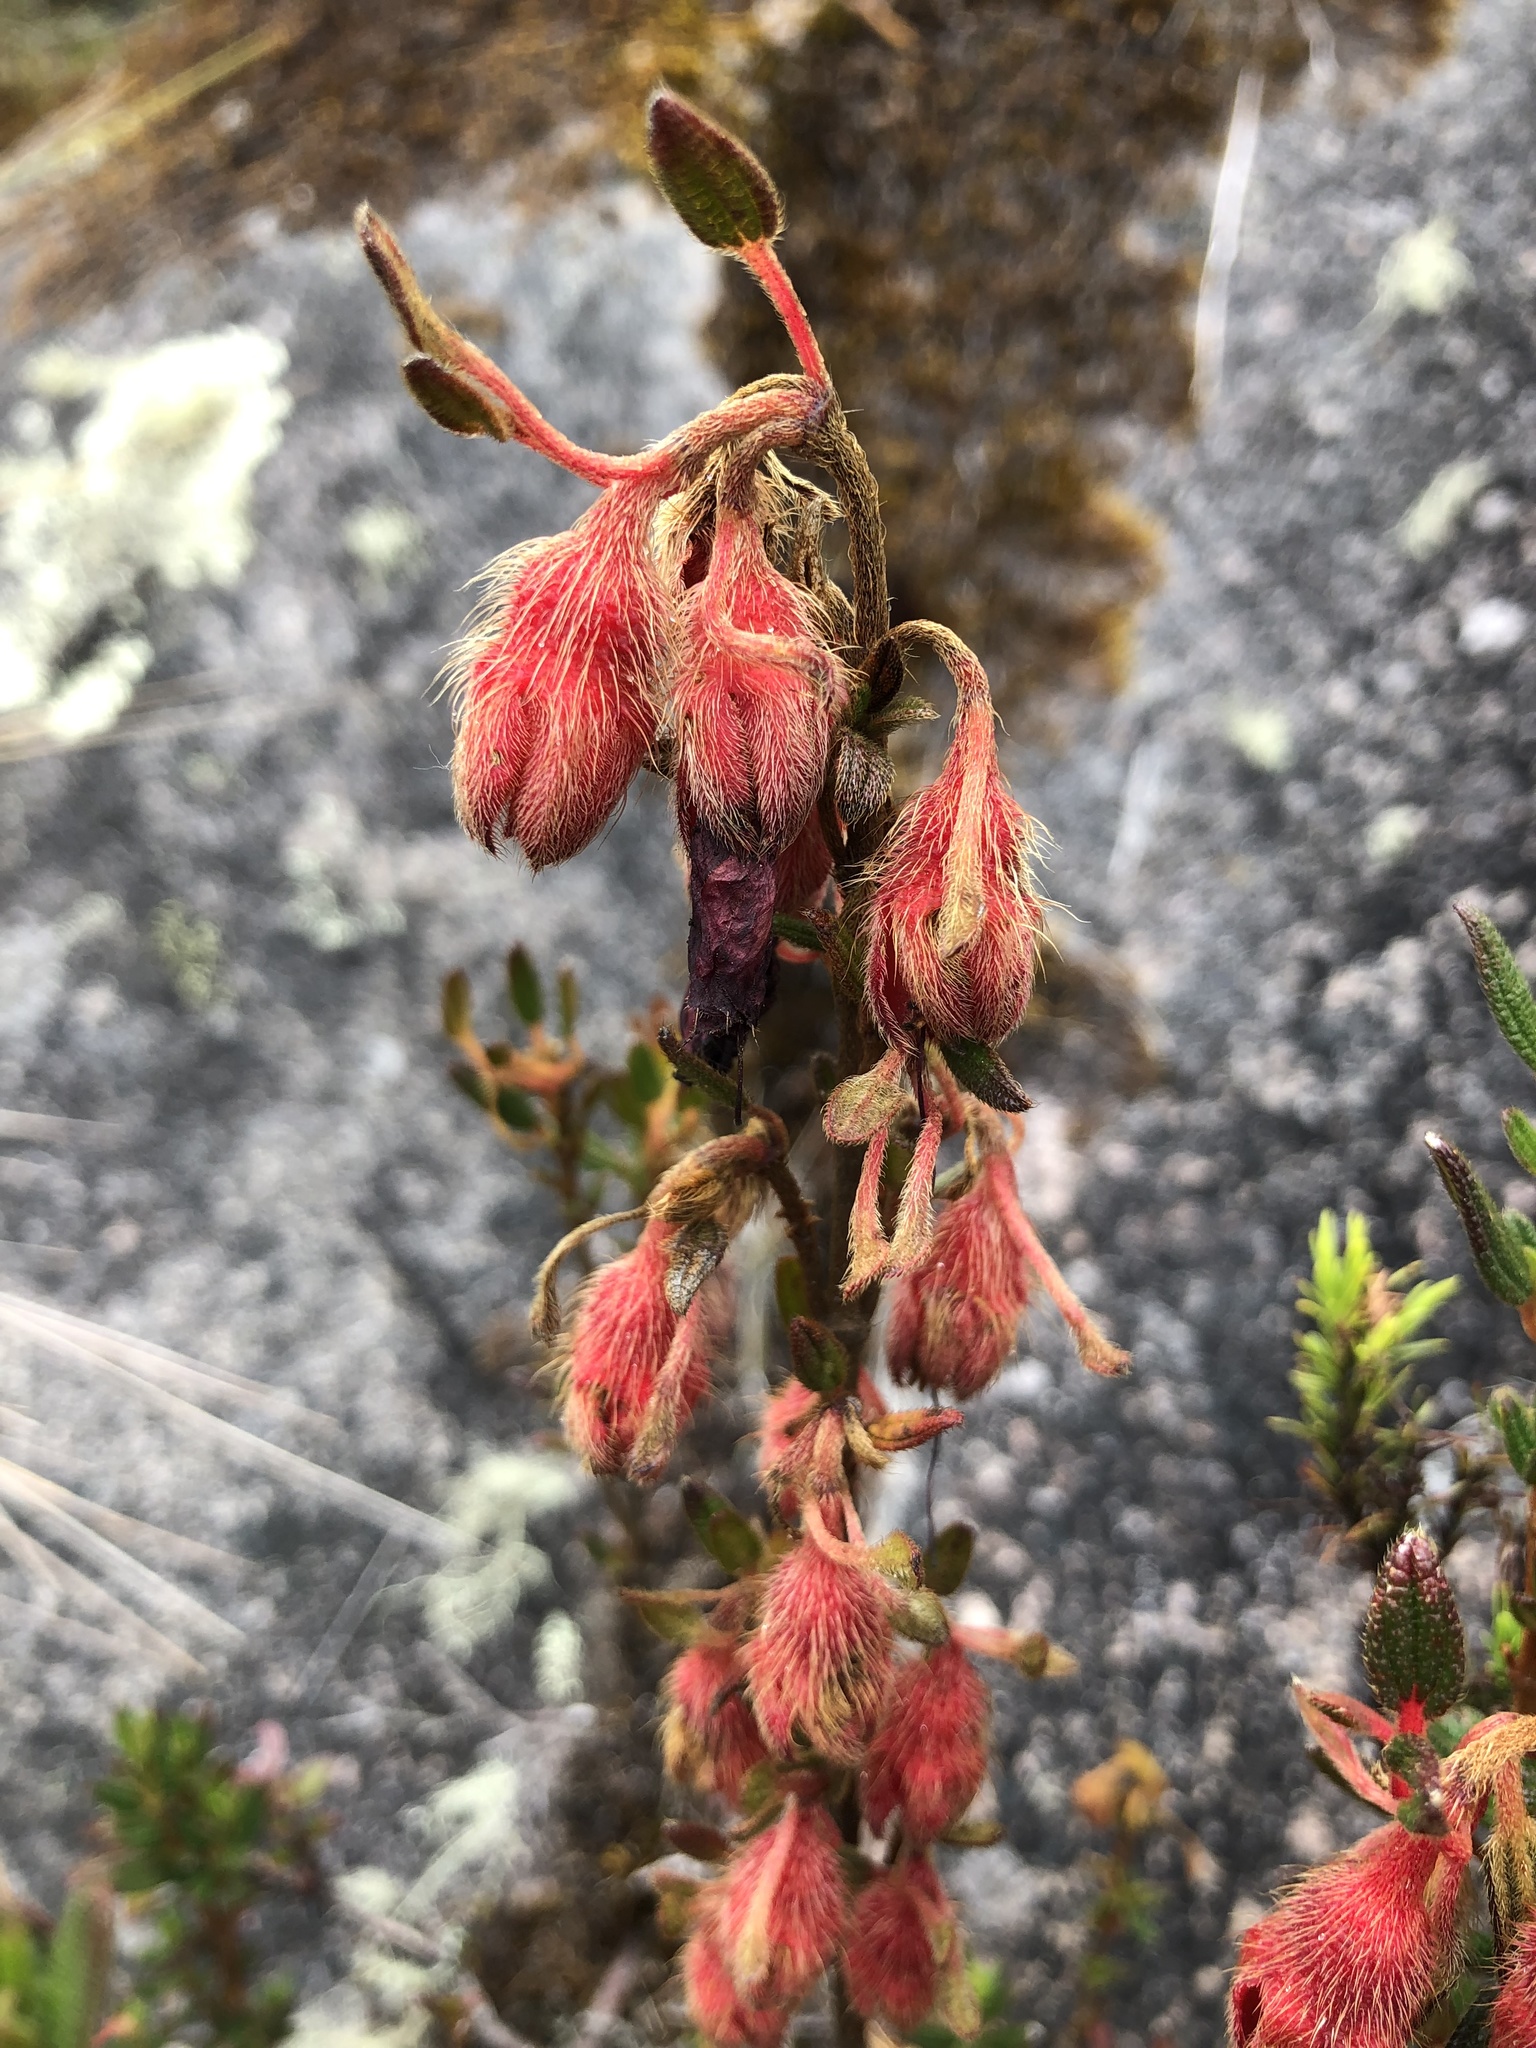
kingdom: Plantae
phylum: Tracheophyta
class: Magnoliopsida
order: Myrtales
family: Melastomataceae
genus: Brachyotum
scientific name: Brachyotum strigosum
